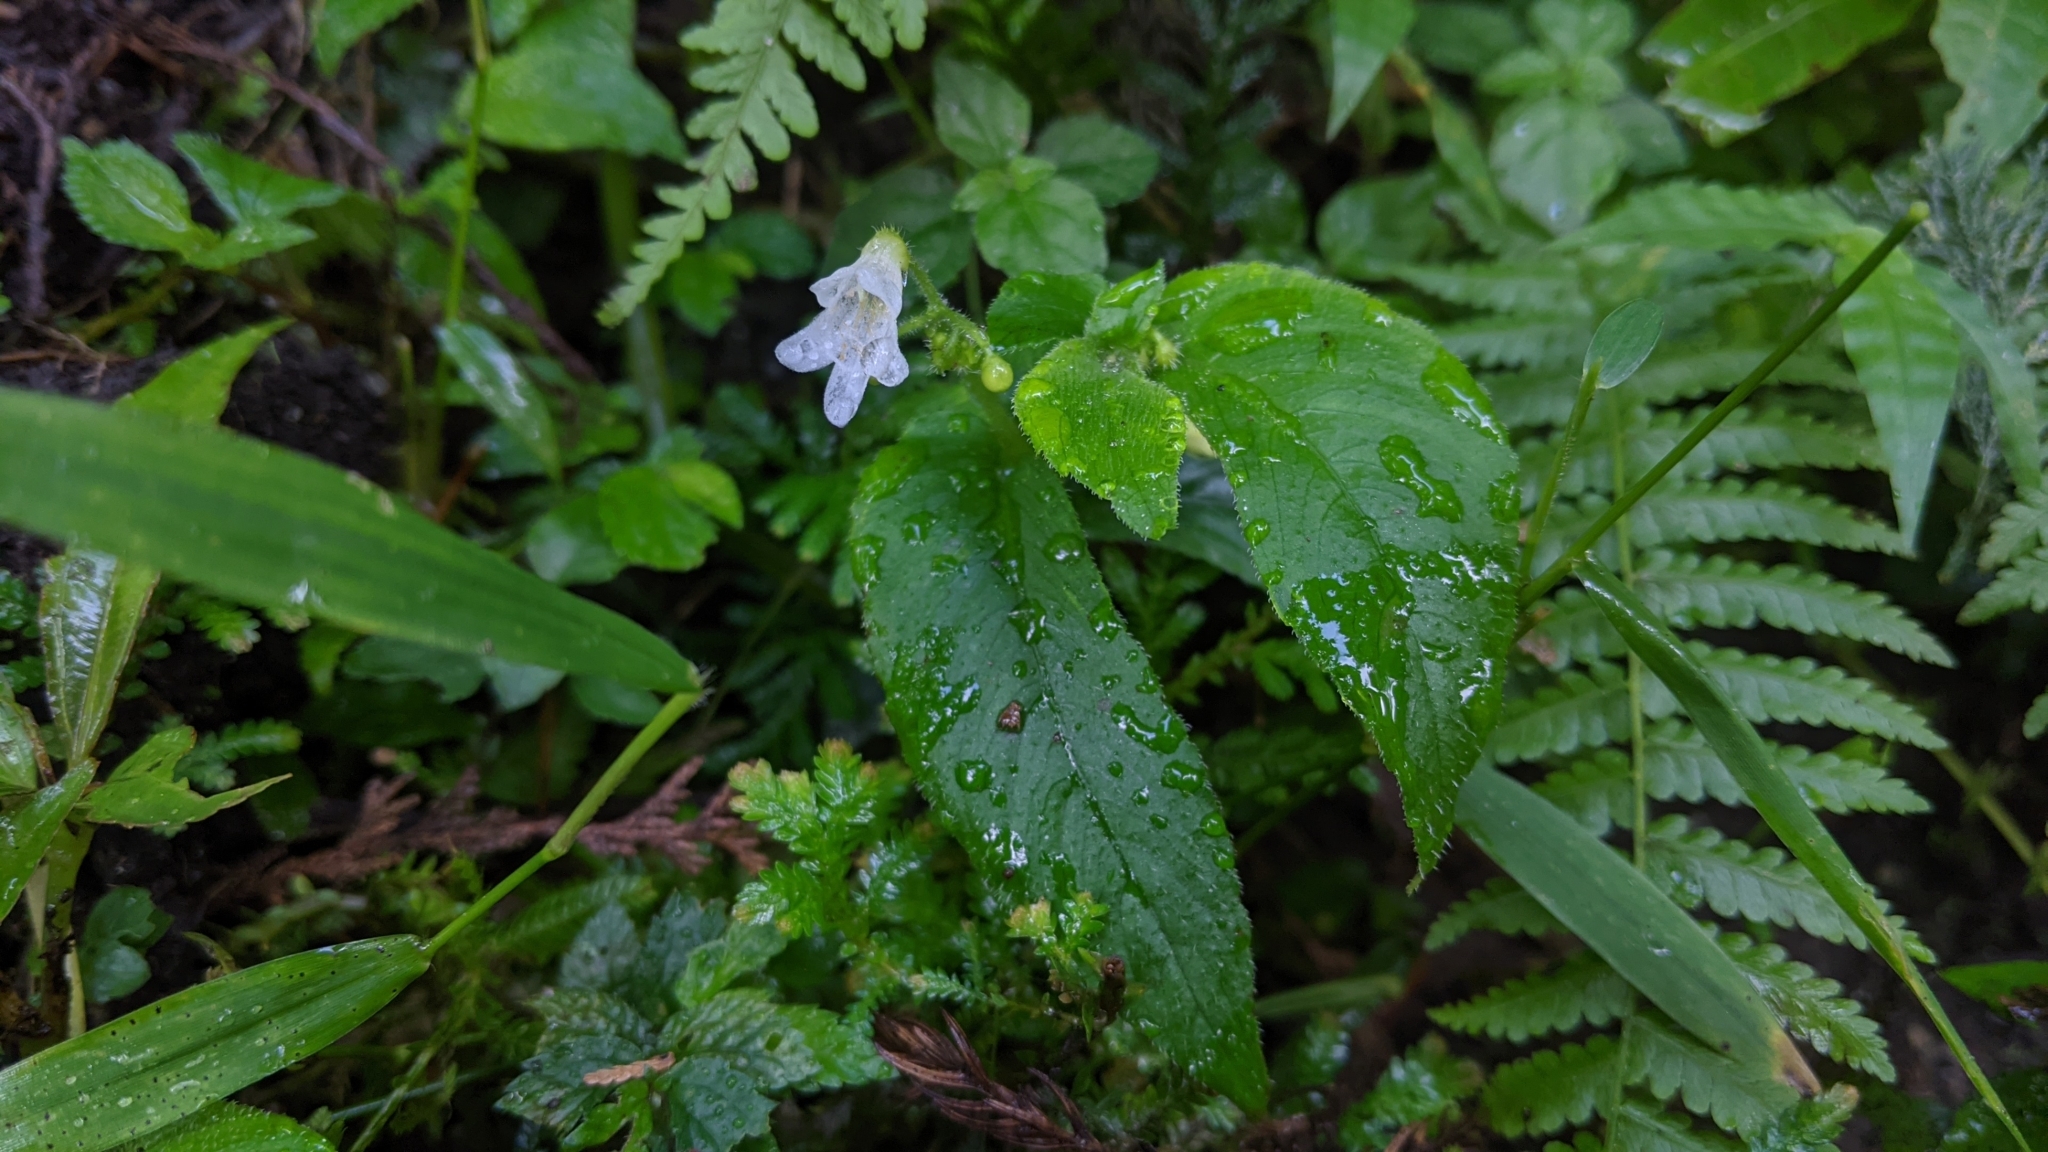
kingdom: Plantae
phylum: Tracheophyta
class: Magnoliopsida
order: Lamiales
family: Gesneriaceae
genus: Whytockia
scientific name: Whytockia sasakii
